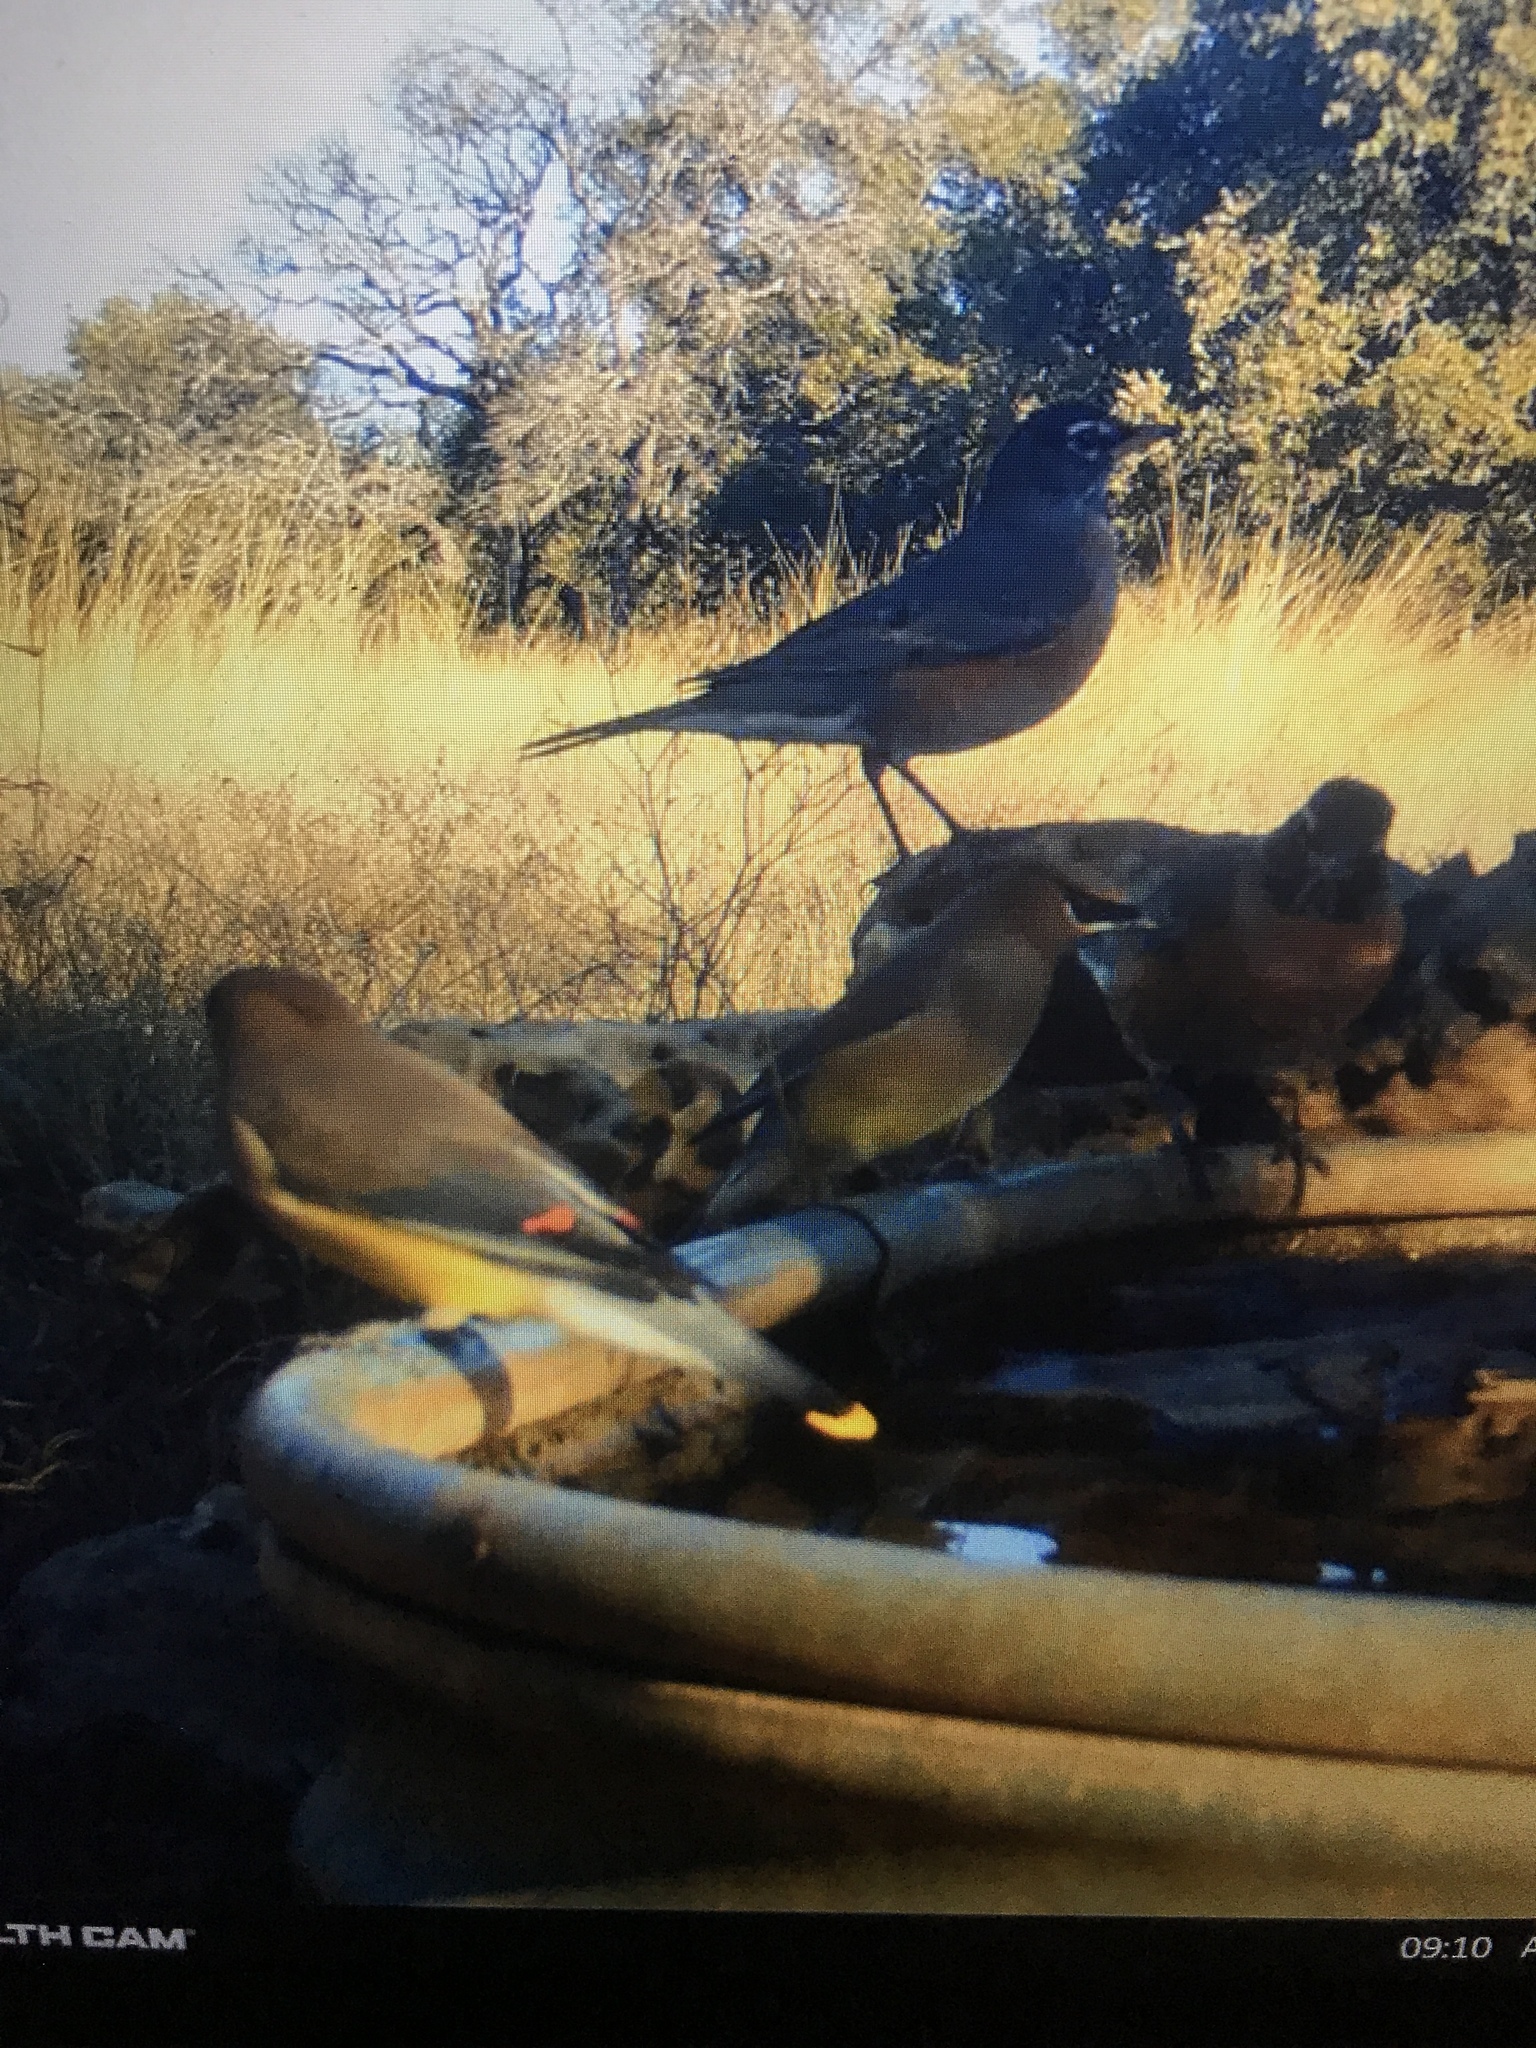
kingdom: Animalia
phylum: Chordata
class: Aves
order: Passeriformes
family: Bombycillidae
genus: Bombycilla
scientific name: Bombycilla cedrorum
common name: Cedar waxwing
